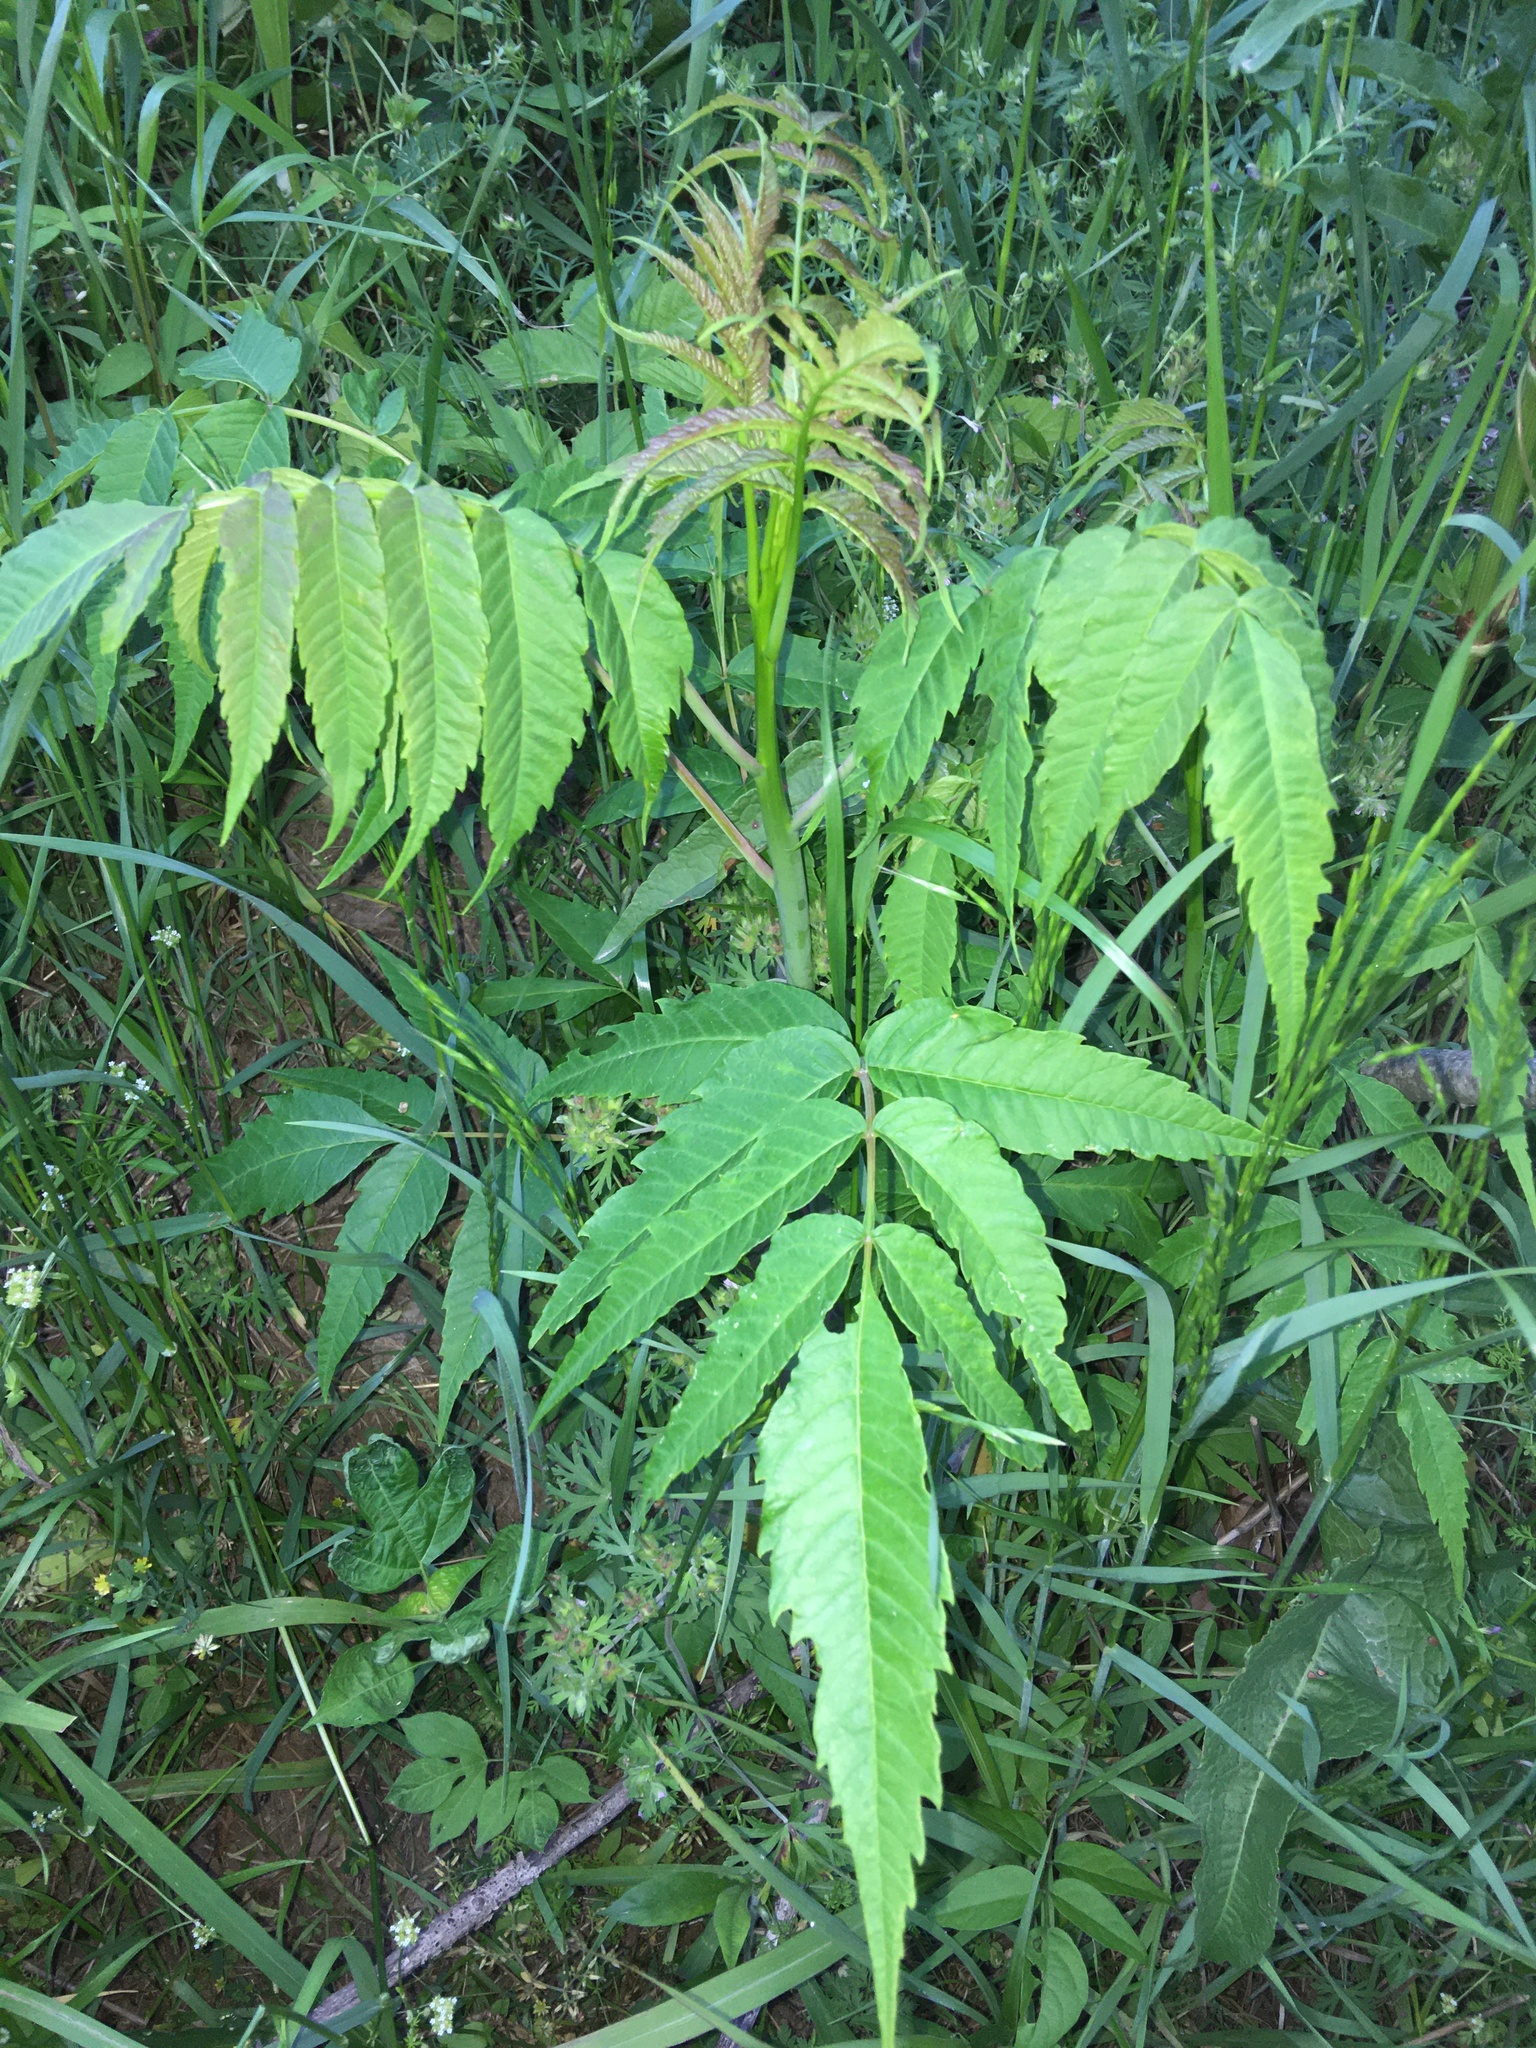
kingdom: Plantae
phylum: Tracheophyta
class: Magnoliopsida
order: Sapindales
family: Anacardiaceae
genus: Rhus
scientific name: Rhus glabra
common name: Scarlet sumac
